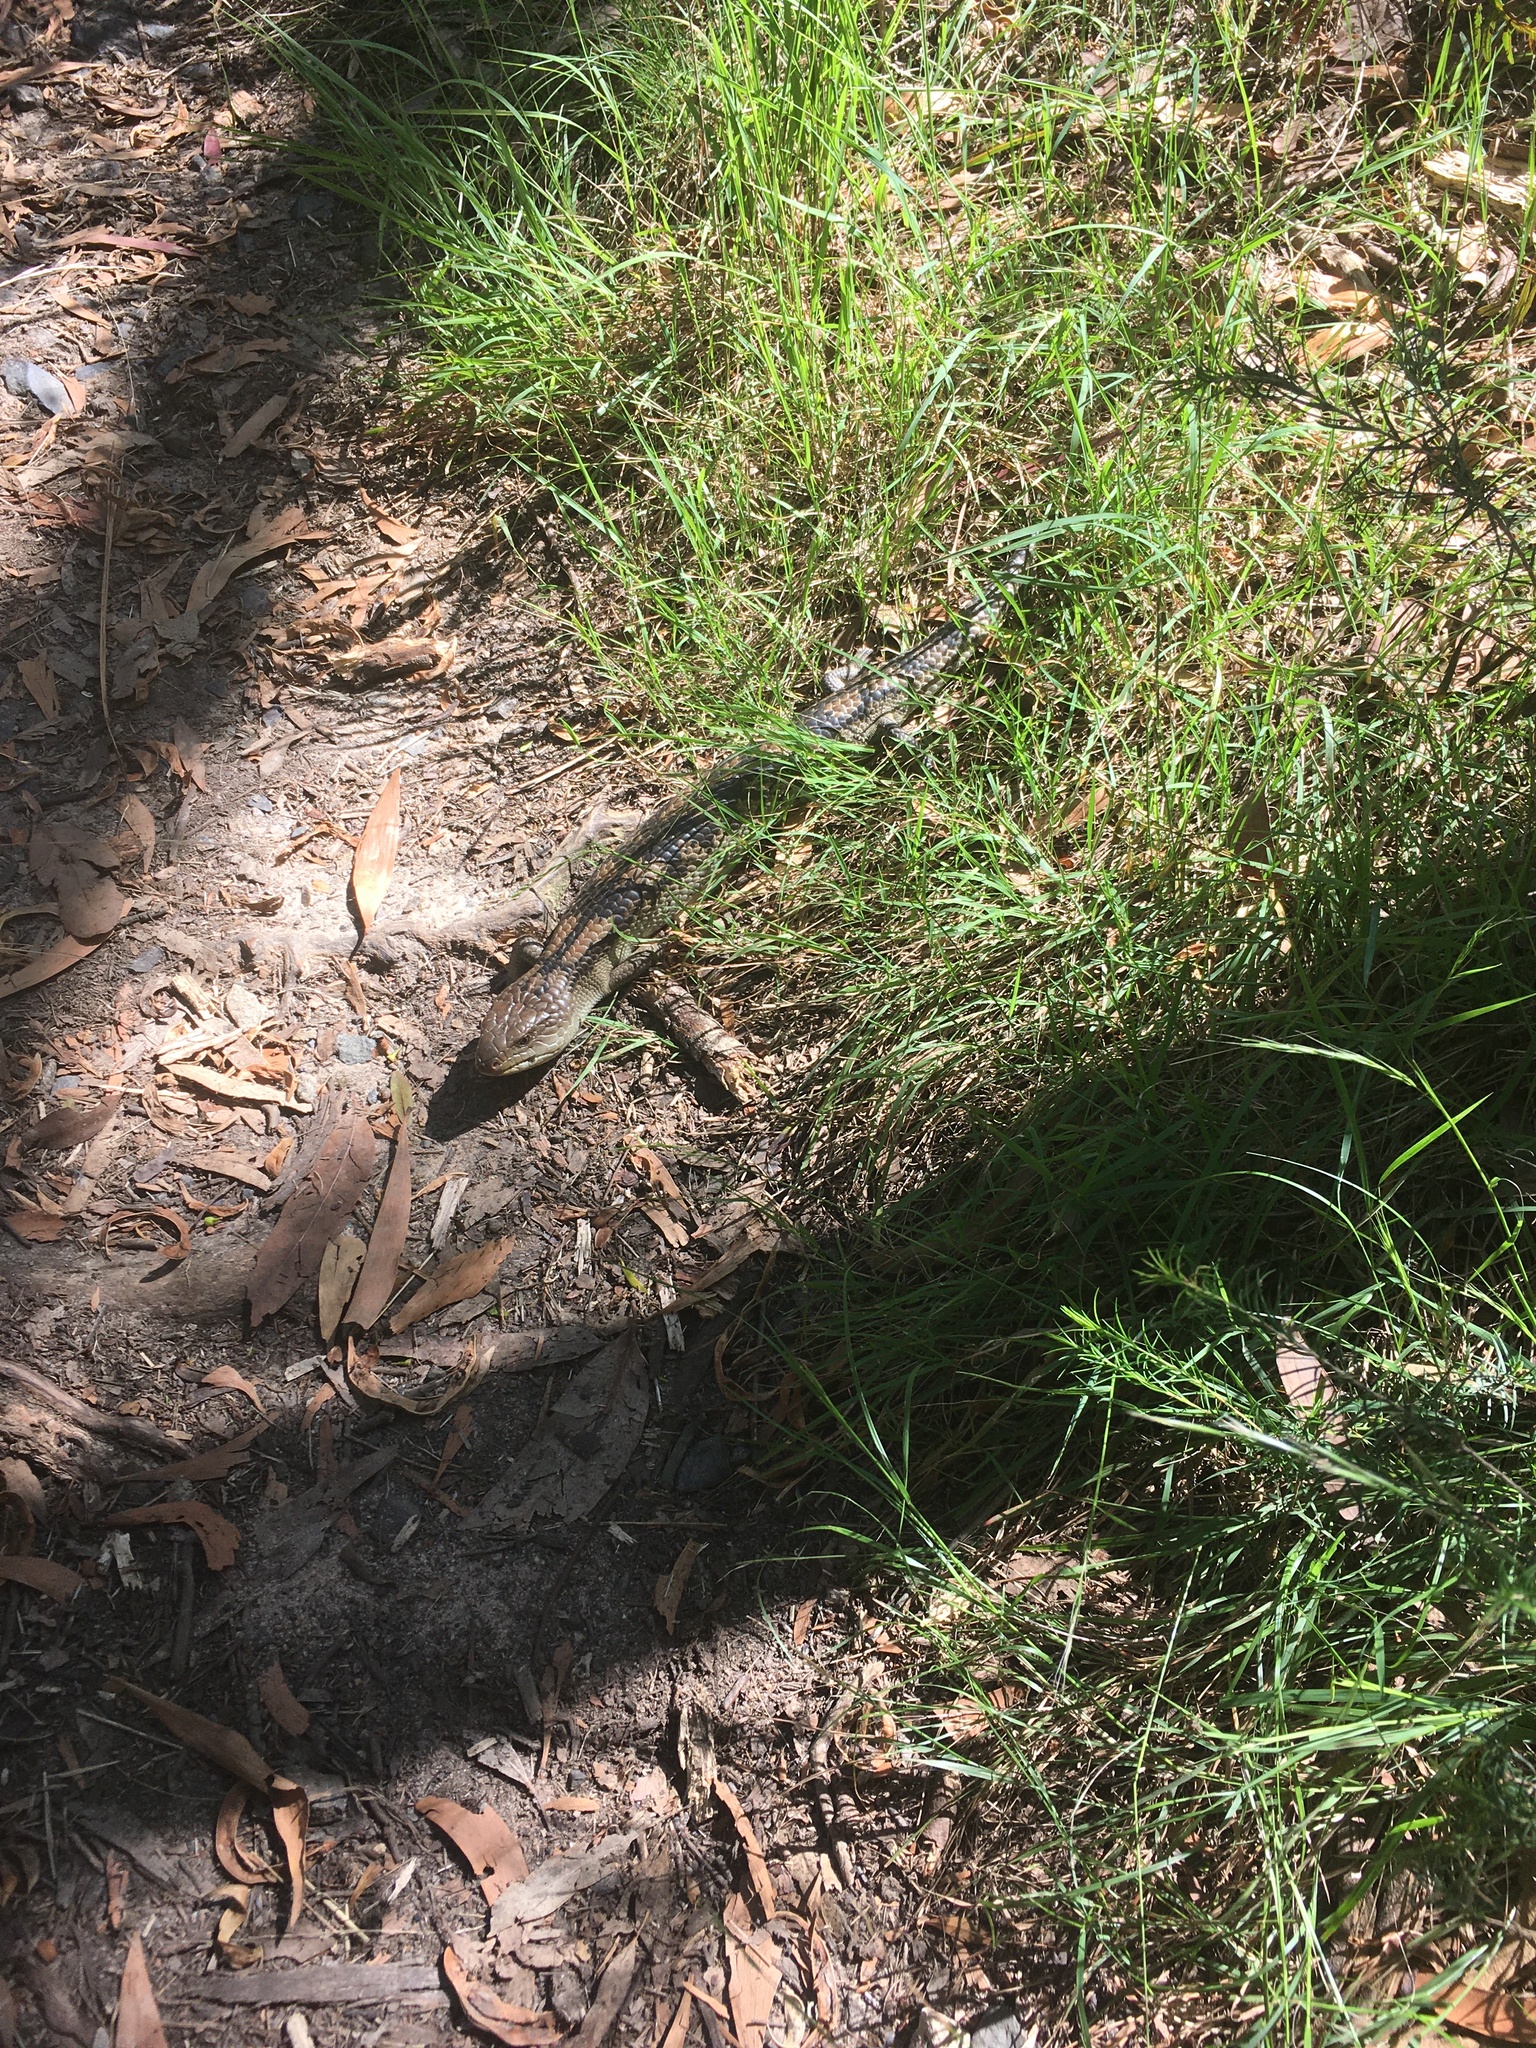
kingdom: Animalia
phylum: Chordata
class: Squamata
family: Scincidae
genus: Tiliqua
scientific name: Tiliqua nigrolutea
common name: Blotched blue-tongued lizard
